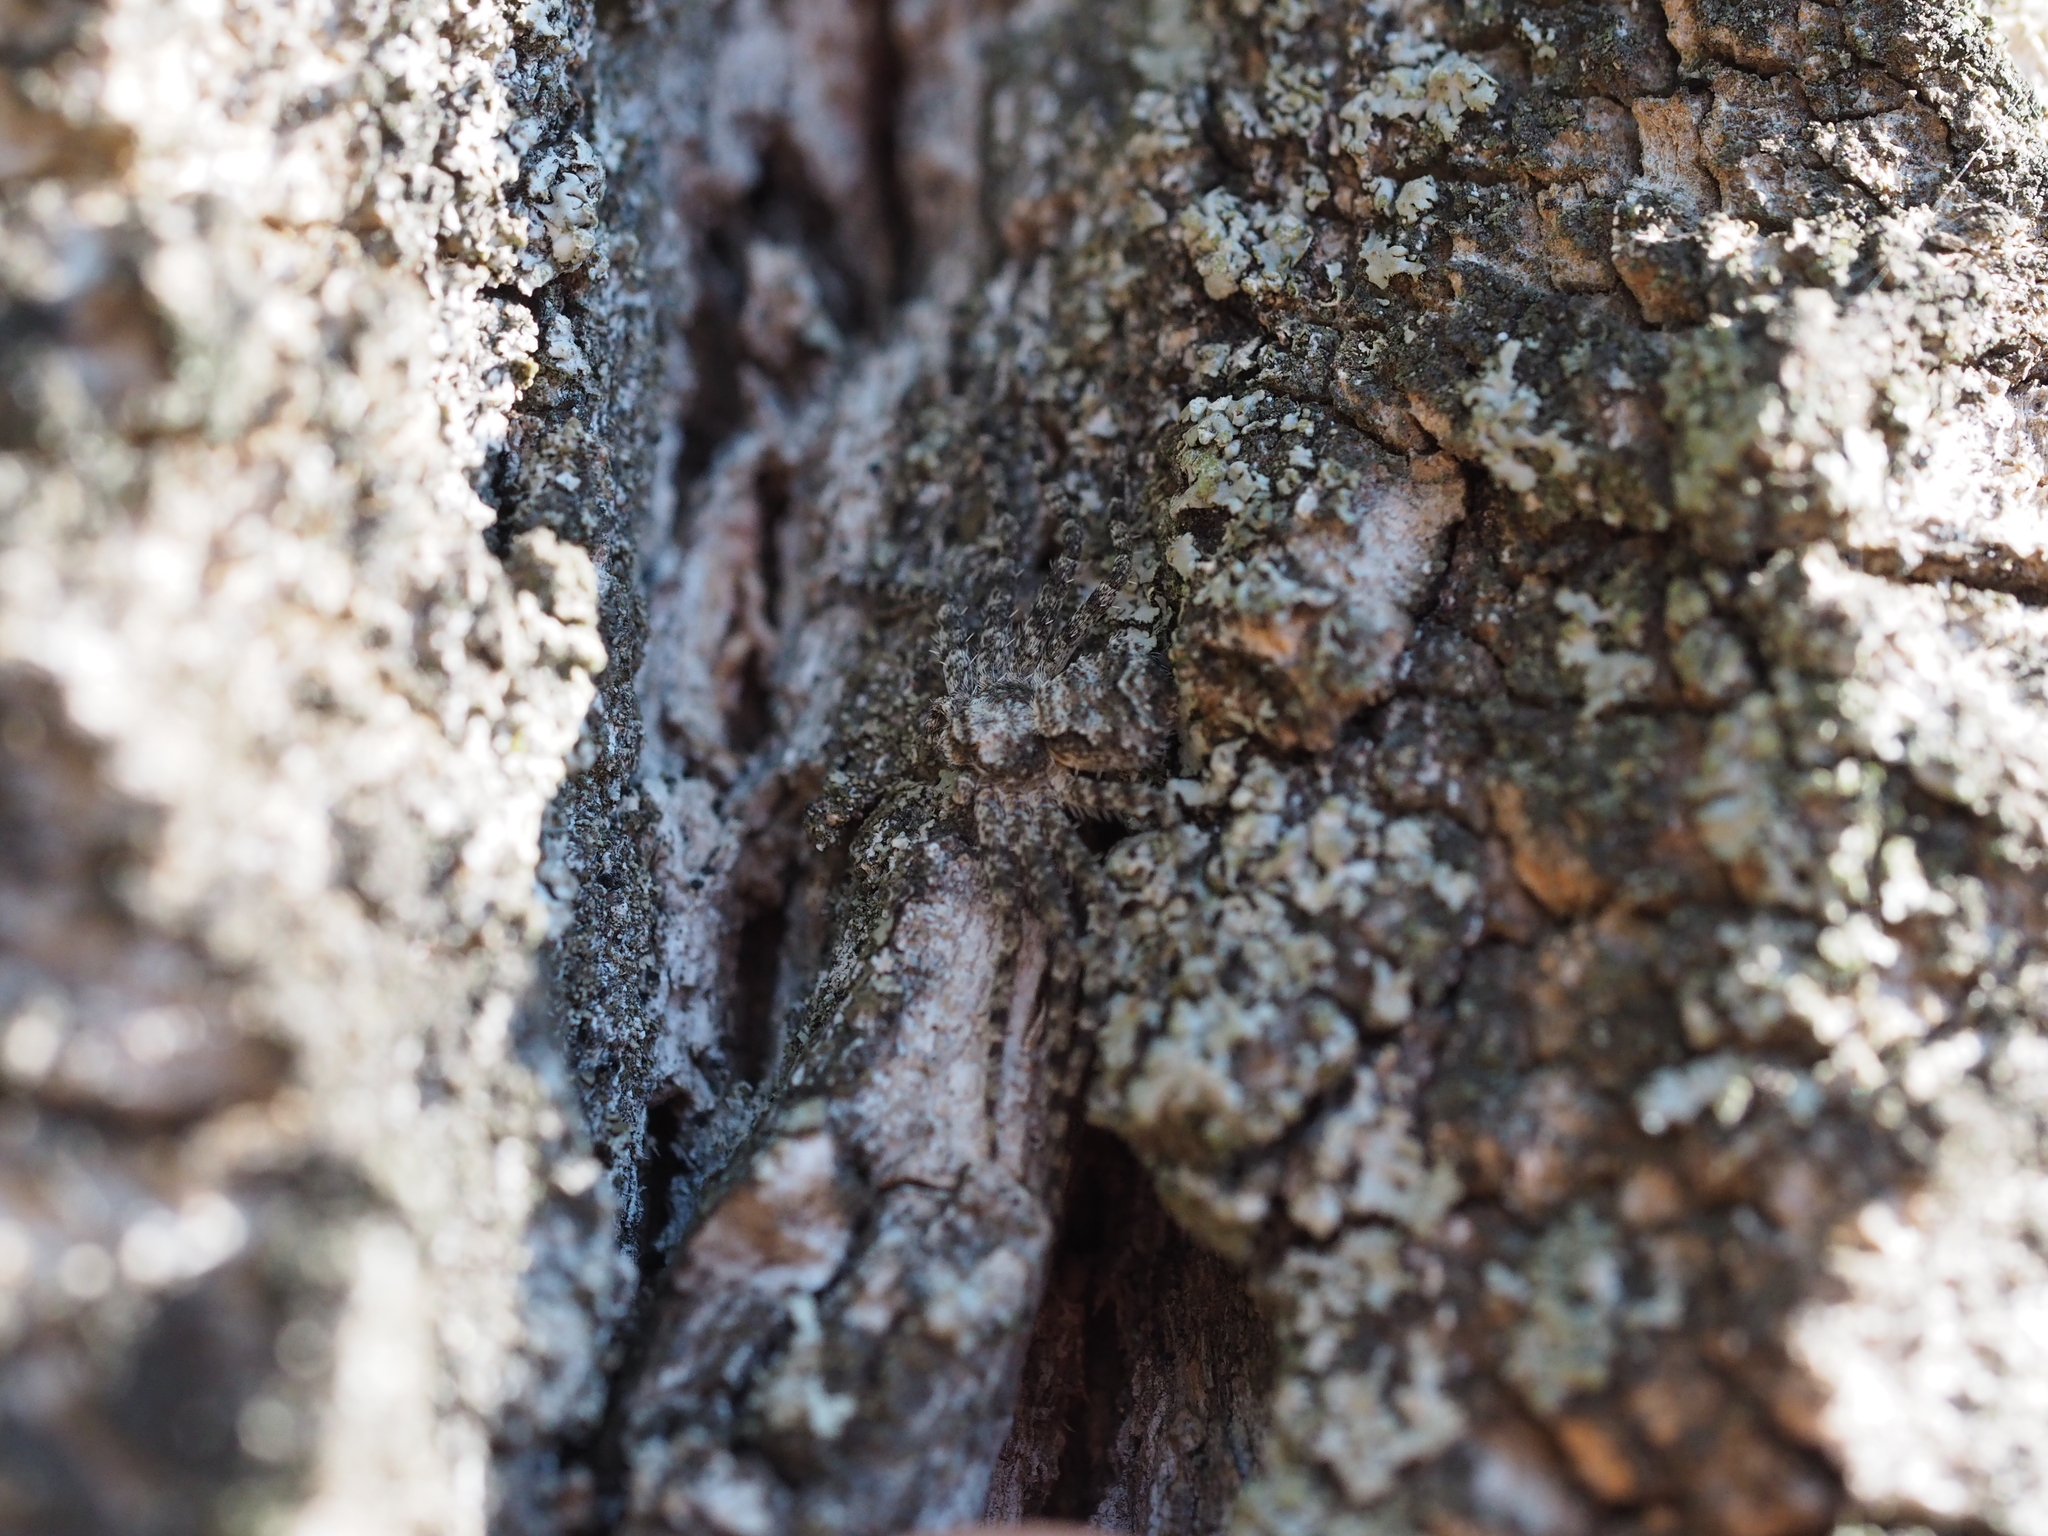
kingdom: Animalia
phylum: Arthropoda
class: Arachnida
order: Araneae
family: Philodromidae
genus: Philodromus
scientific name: Philodromus poecilus
